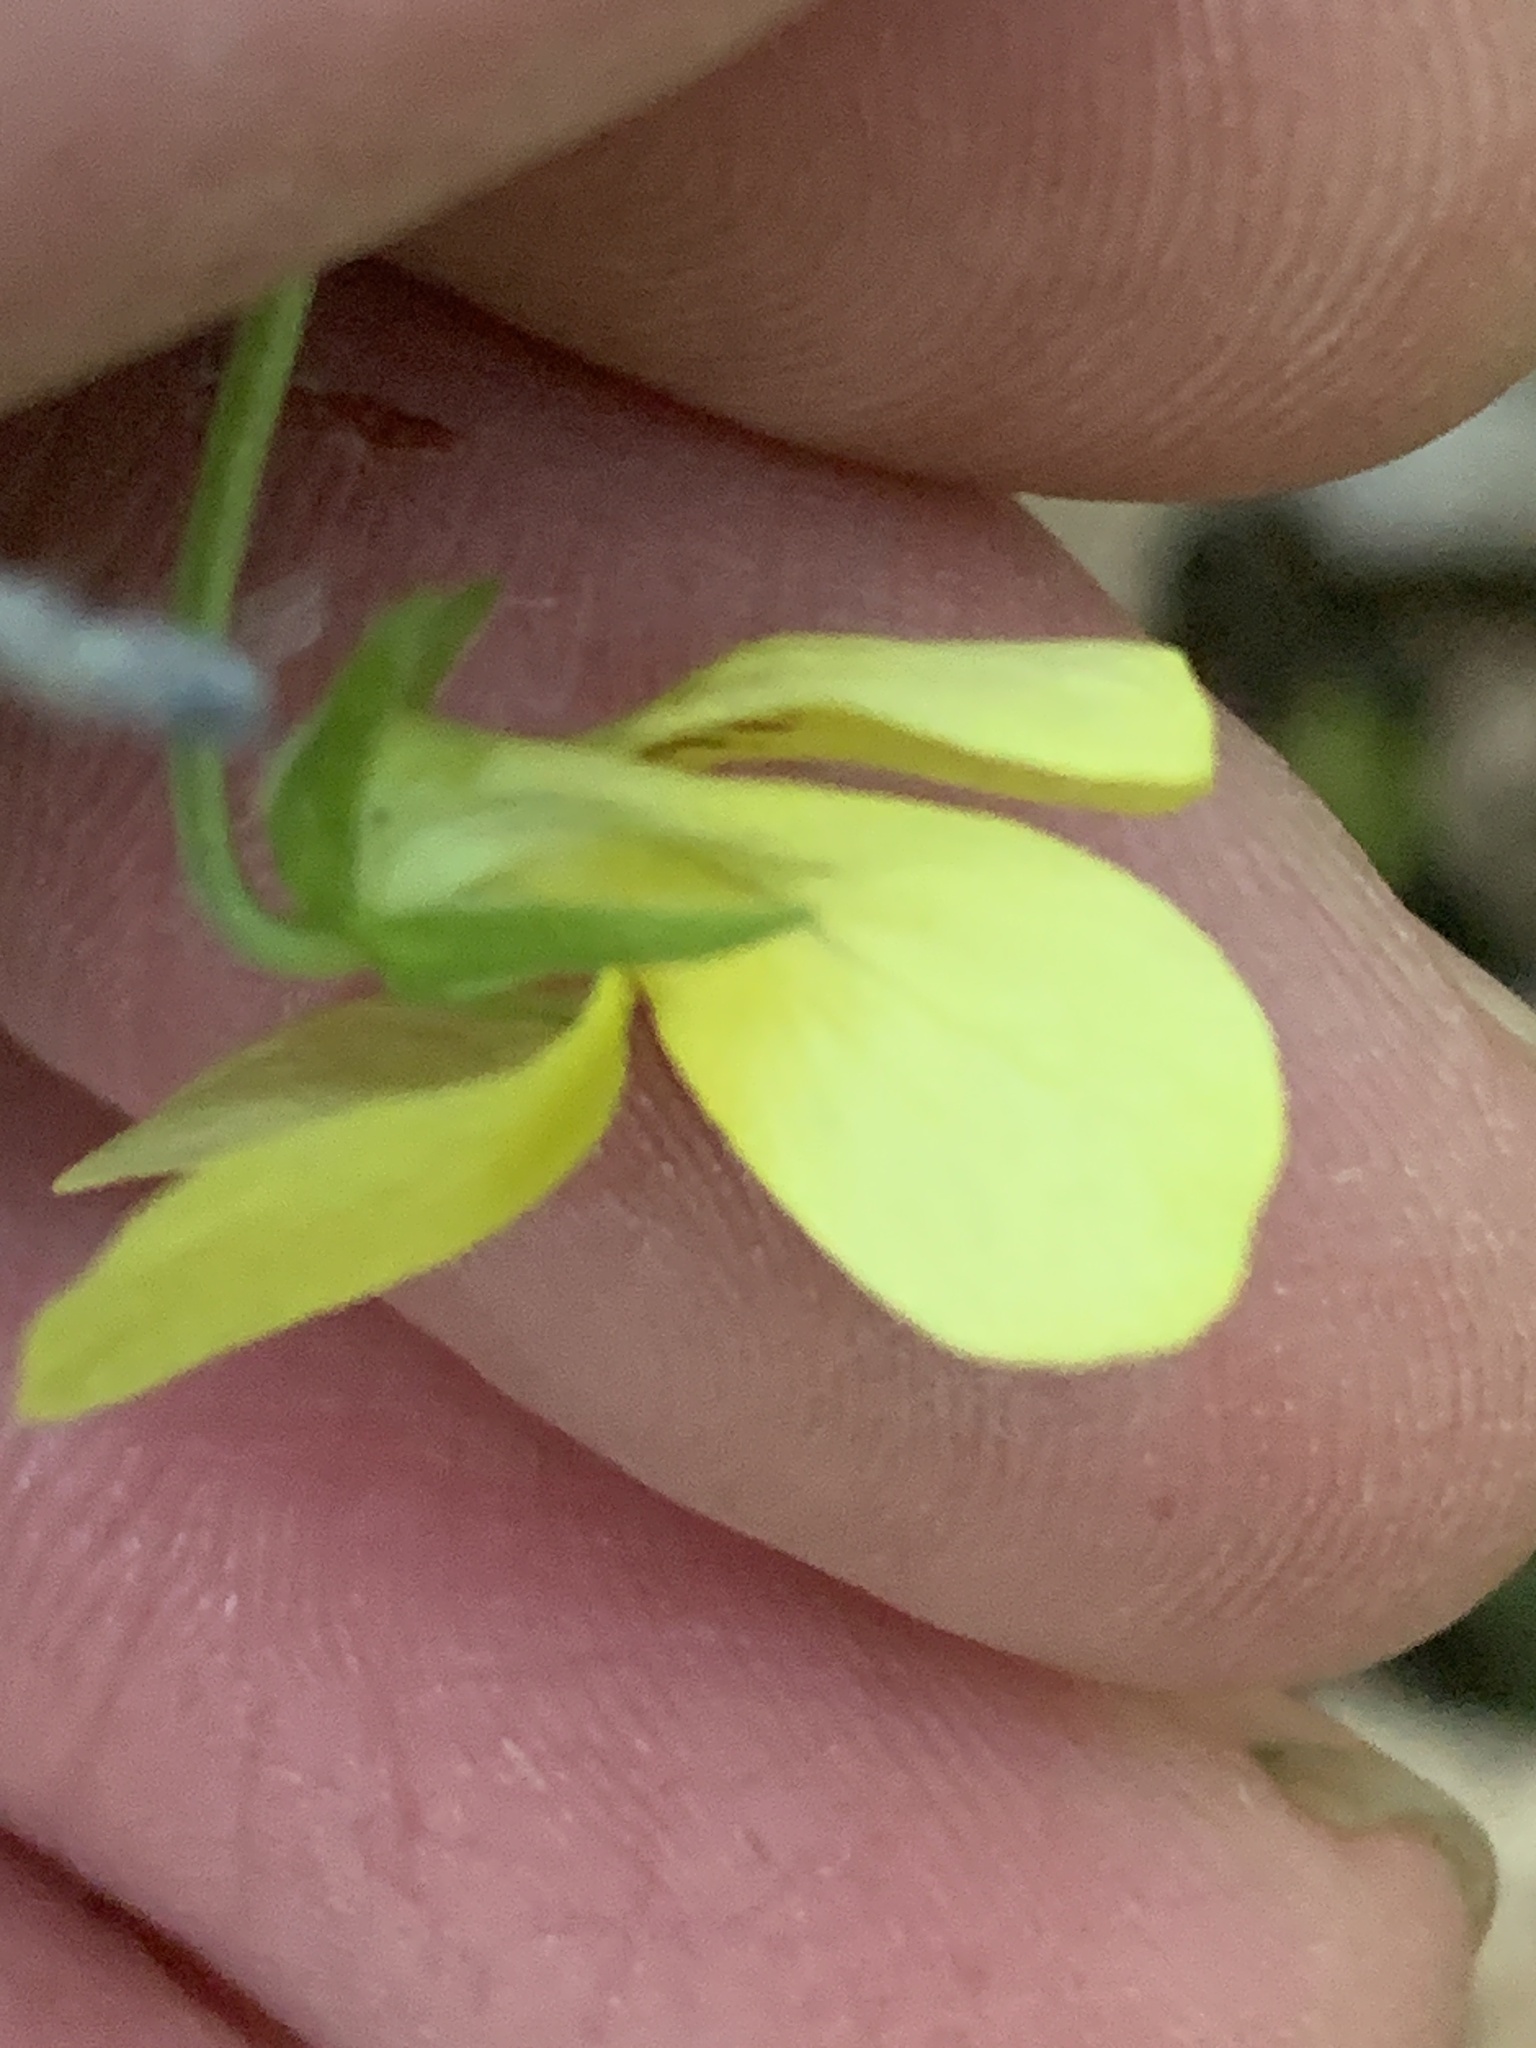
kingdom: Plantae
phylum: Tracheophyta
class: Magnoliopsida
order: Malpighiales
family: Violaceae
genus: Viola
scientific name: Viola eriocarpa
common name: Smooth yellow violet
